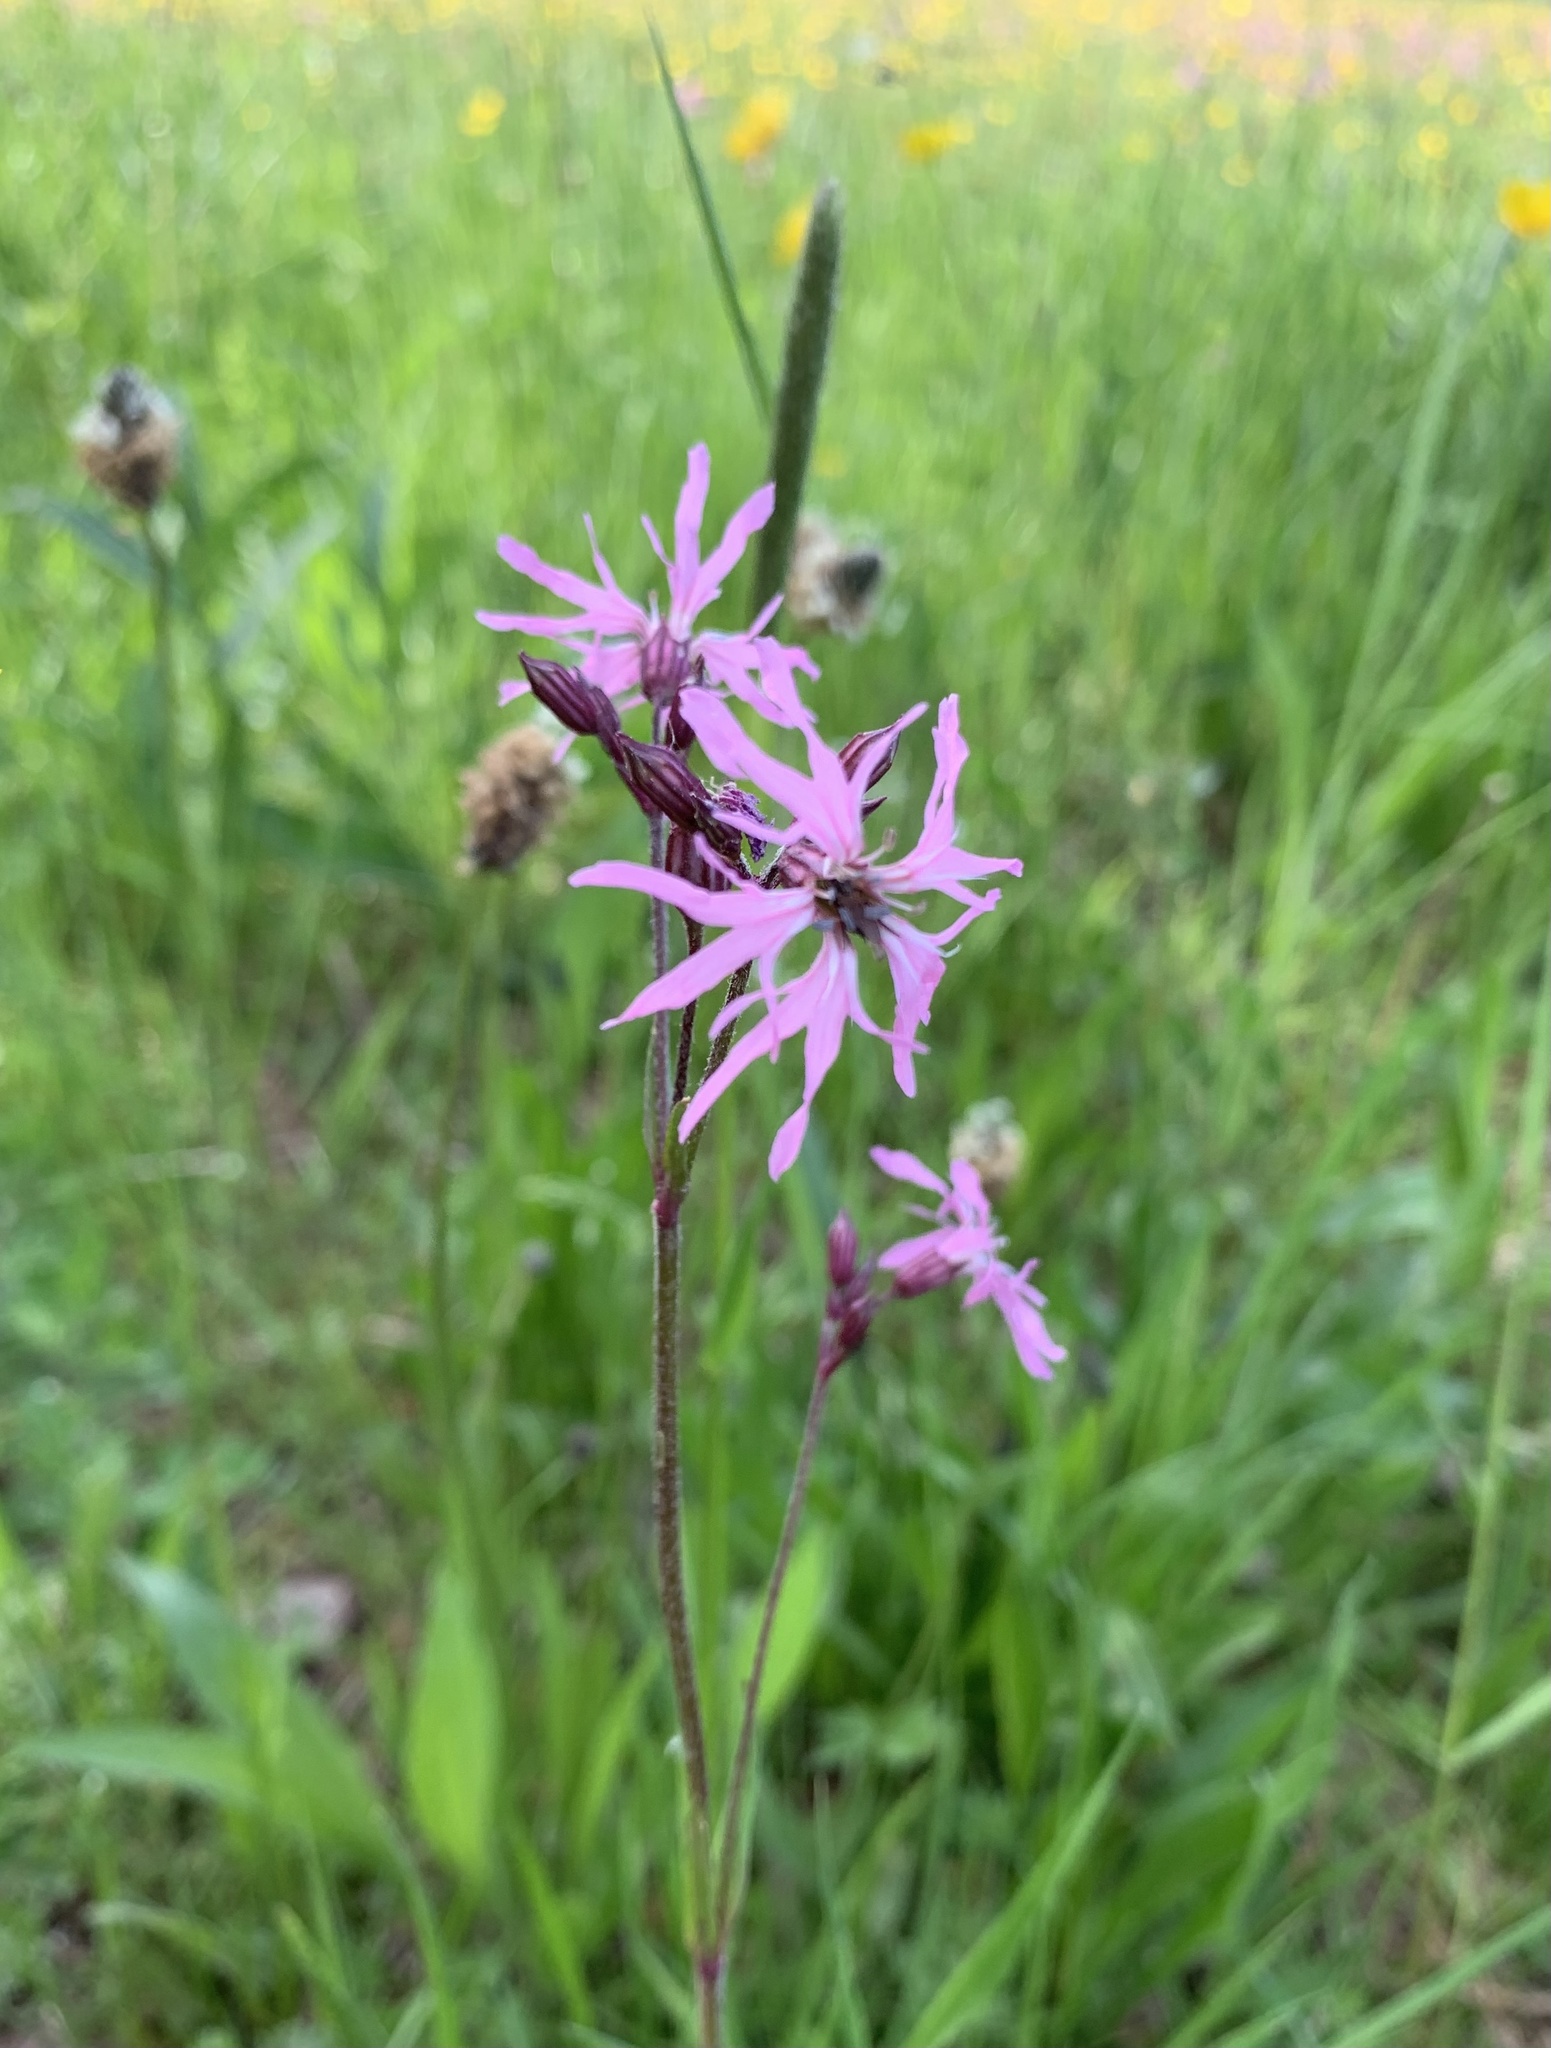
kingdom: Plantae
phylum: Tracheophyta
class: Magnoliopsida
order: Caryophyllales
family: Caryophyllaceae
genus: Silene
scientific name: Silene flos-cuculi
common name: Ragged-robin
